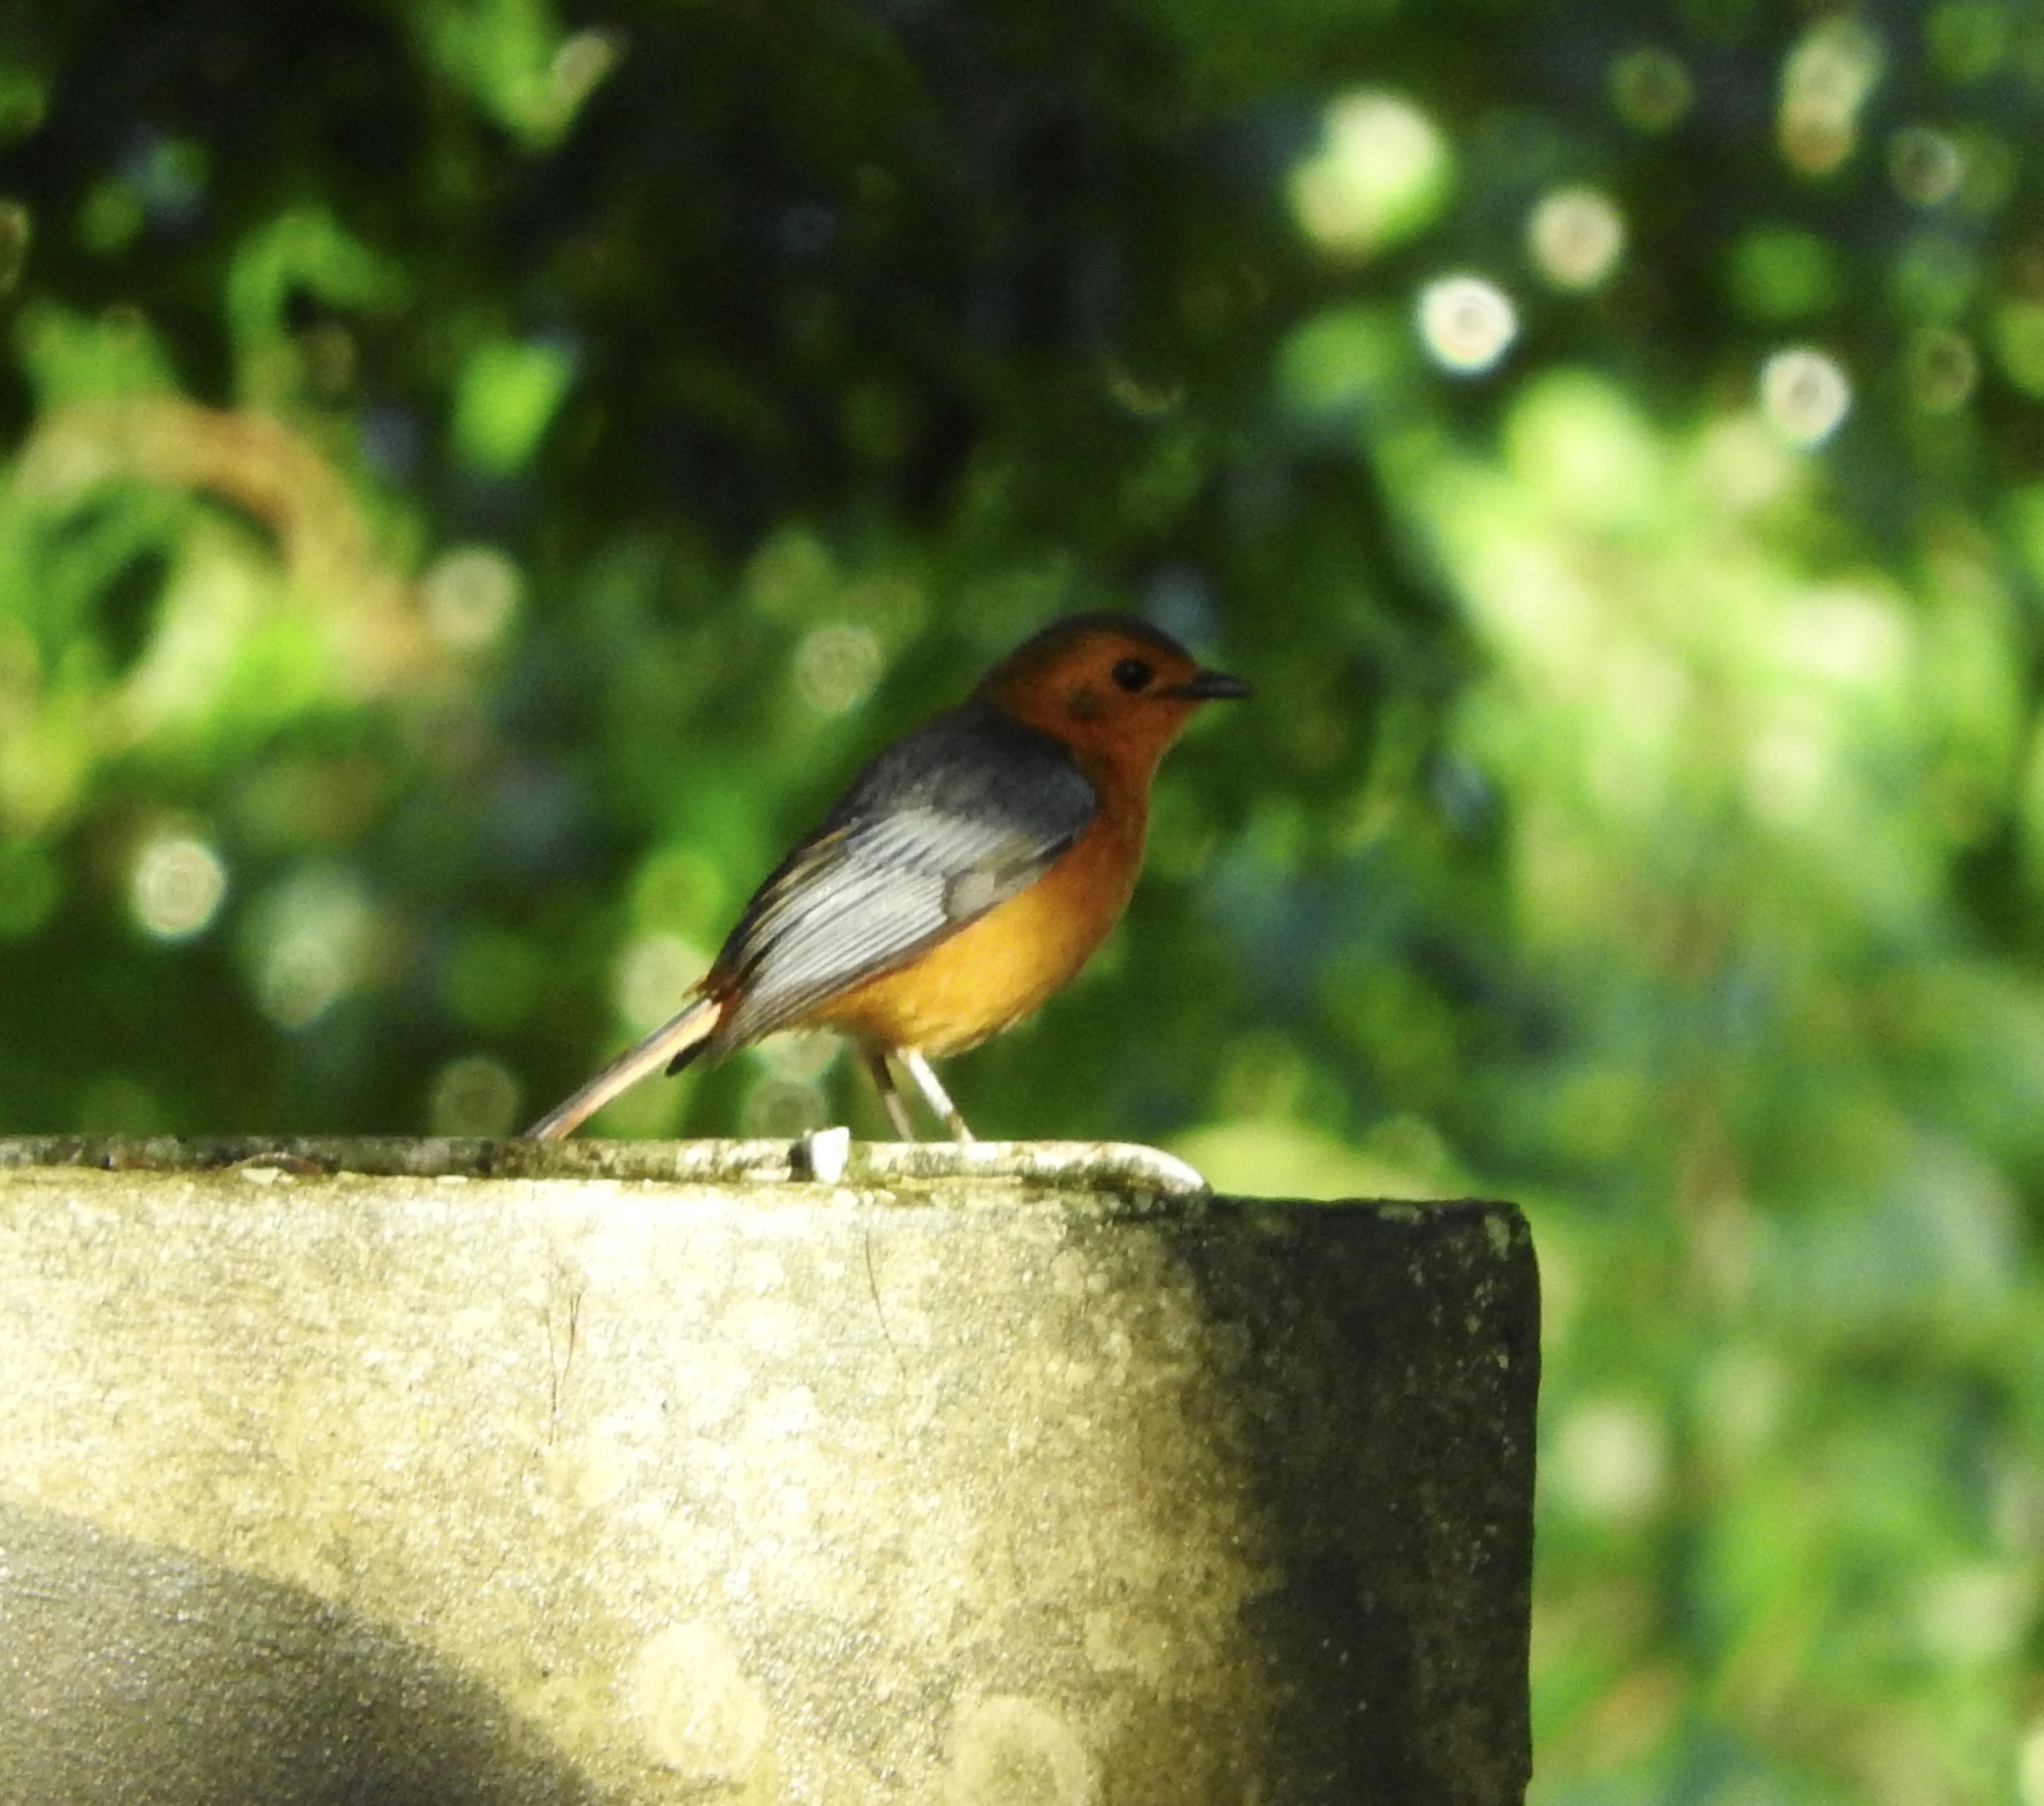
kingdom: Animalia
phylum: Chordata
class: Aves
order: Passeriformes
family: Muscicapidae
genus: Cossypha
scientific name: Cossypha natalensis
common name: Red-capped robin-chat
